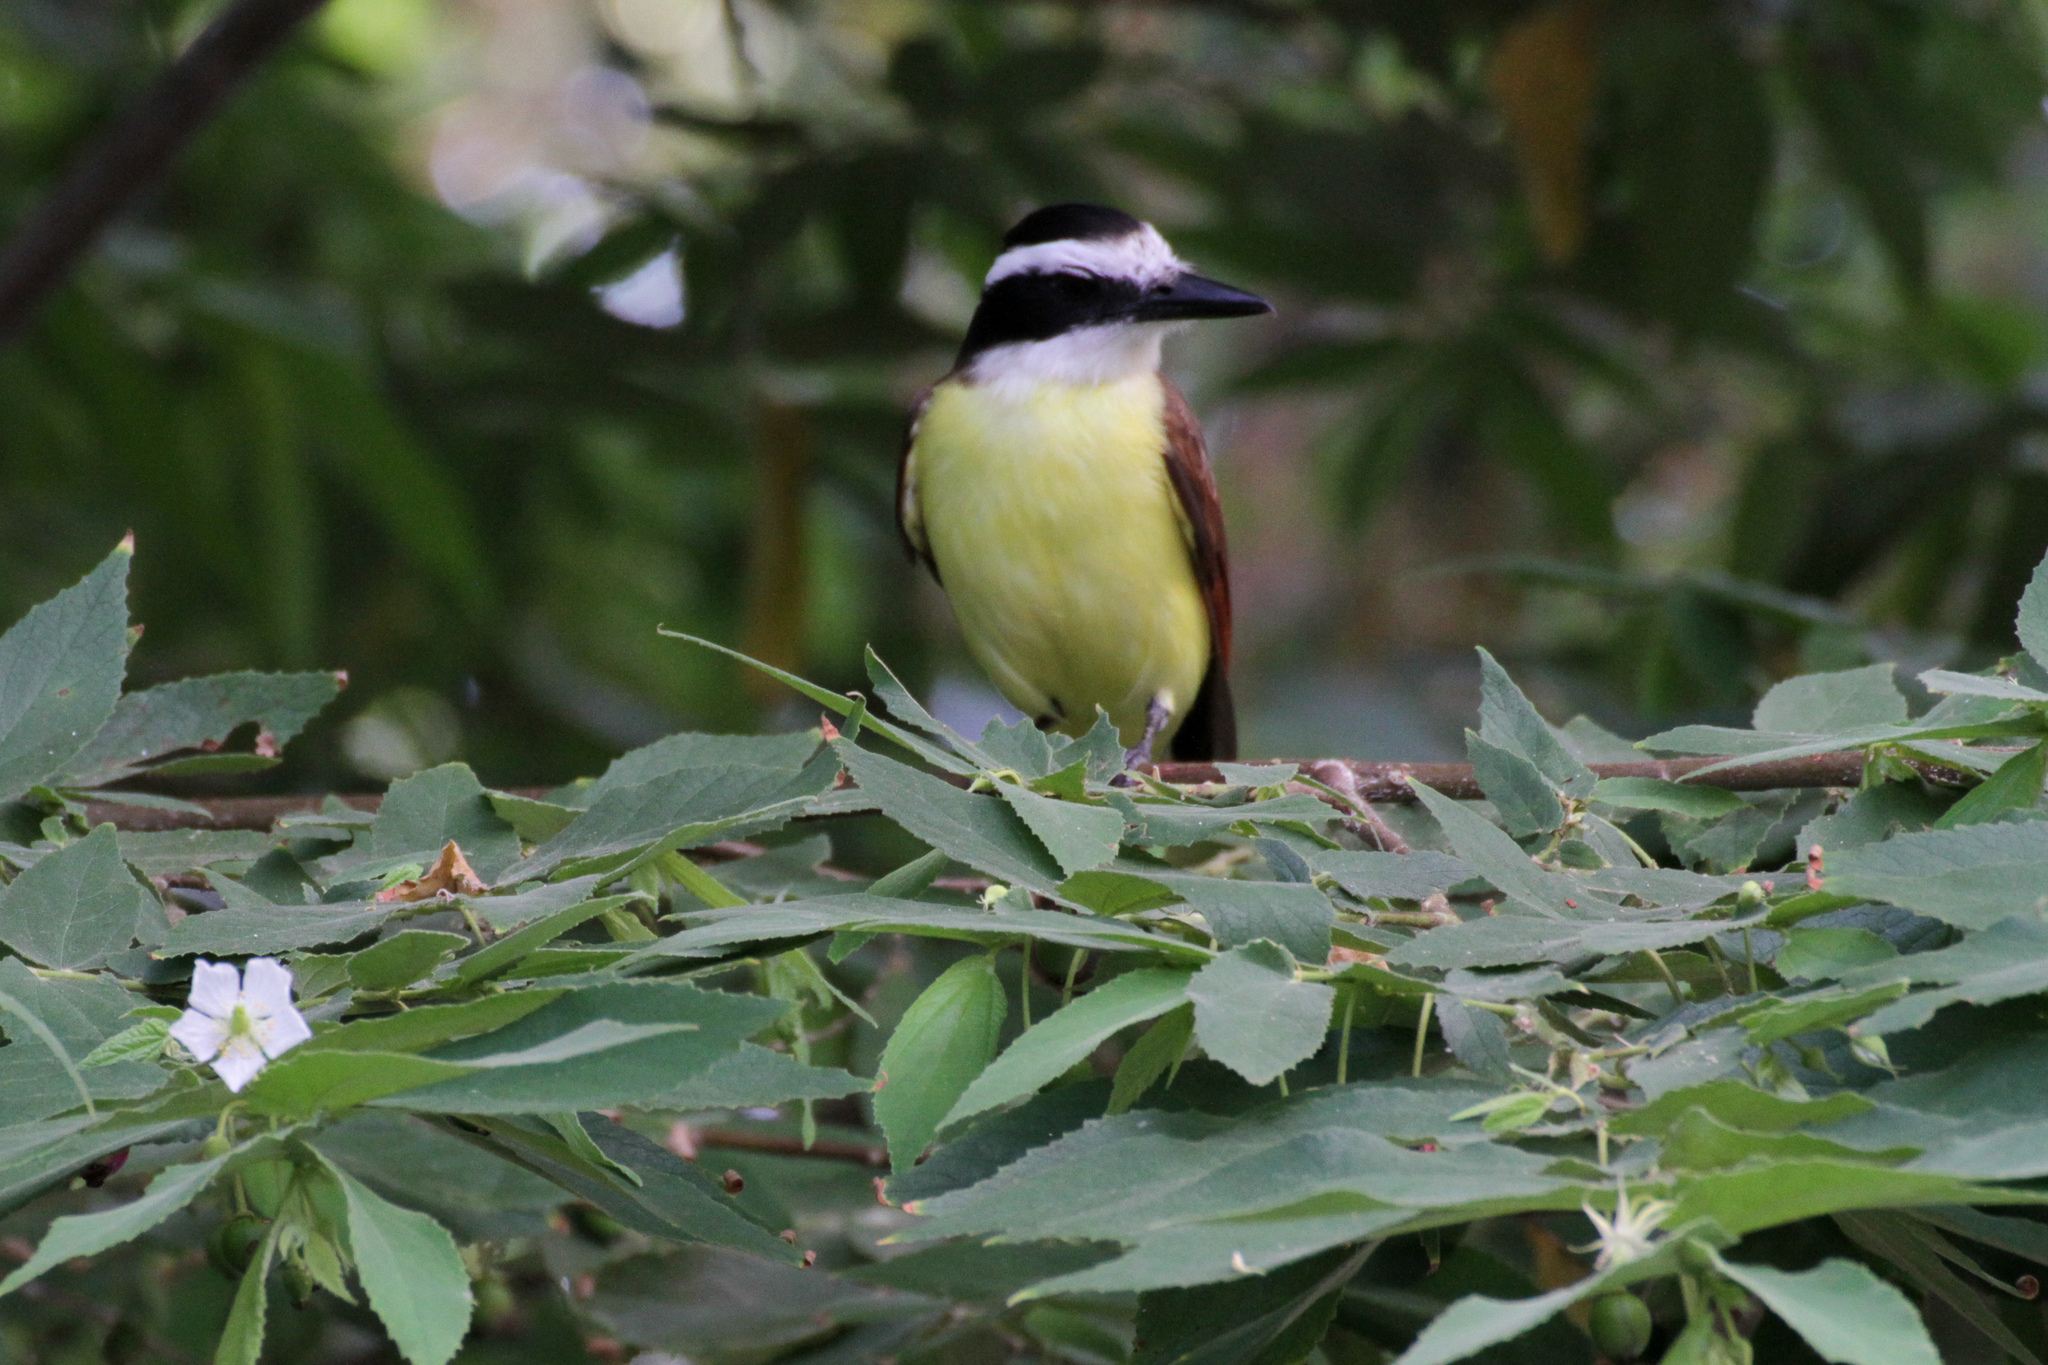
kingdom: Animalia
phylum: Chordata
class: Aves
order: Passeriformes
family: Tyrannidae
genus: Pitangus
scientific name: Pitangus sulphuratus
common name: Great kiskadee
